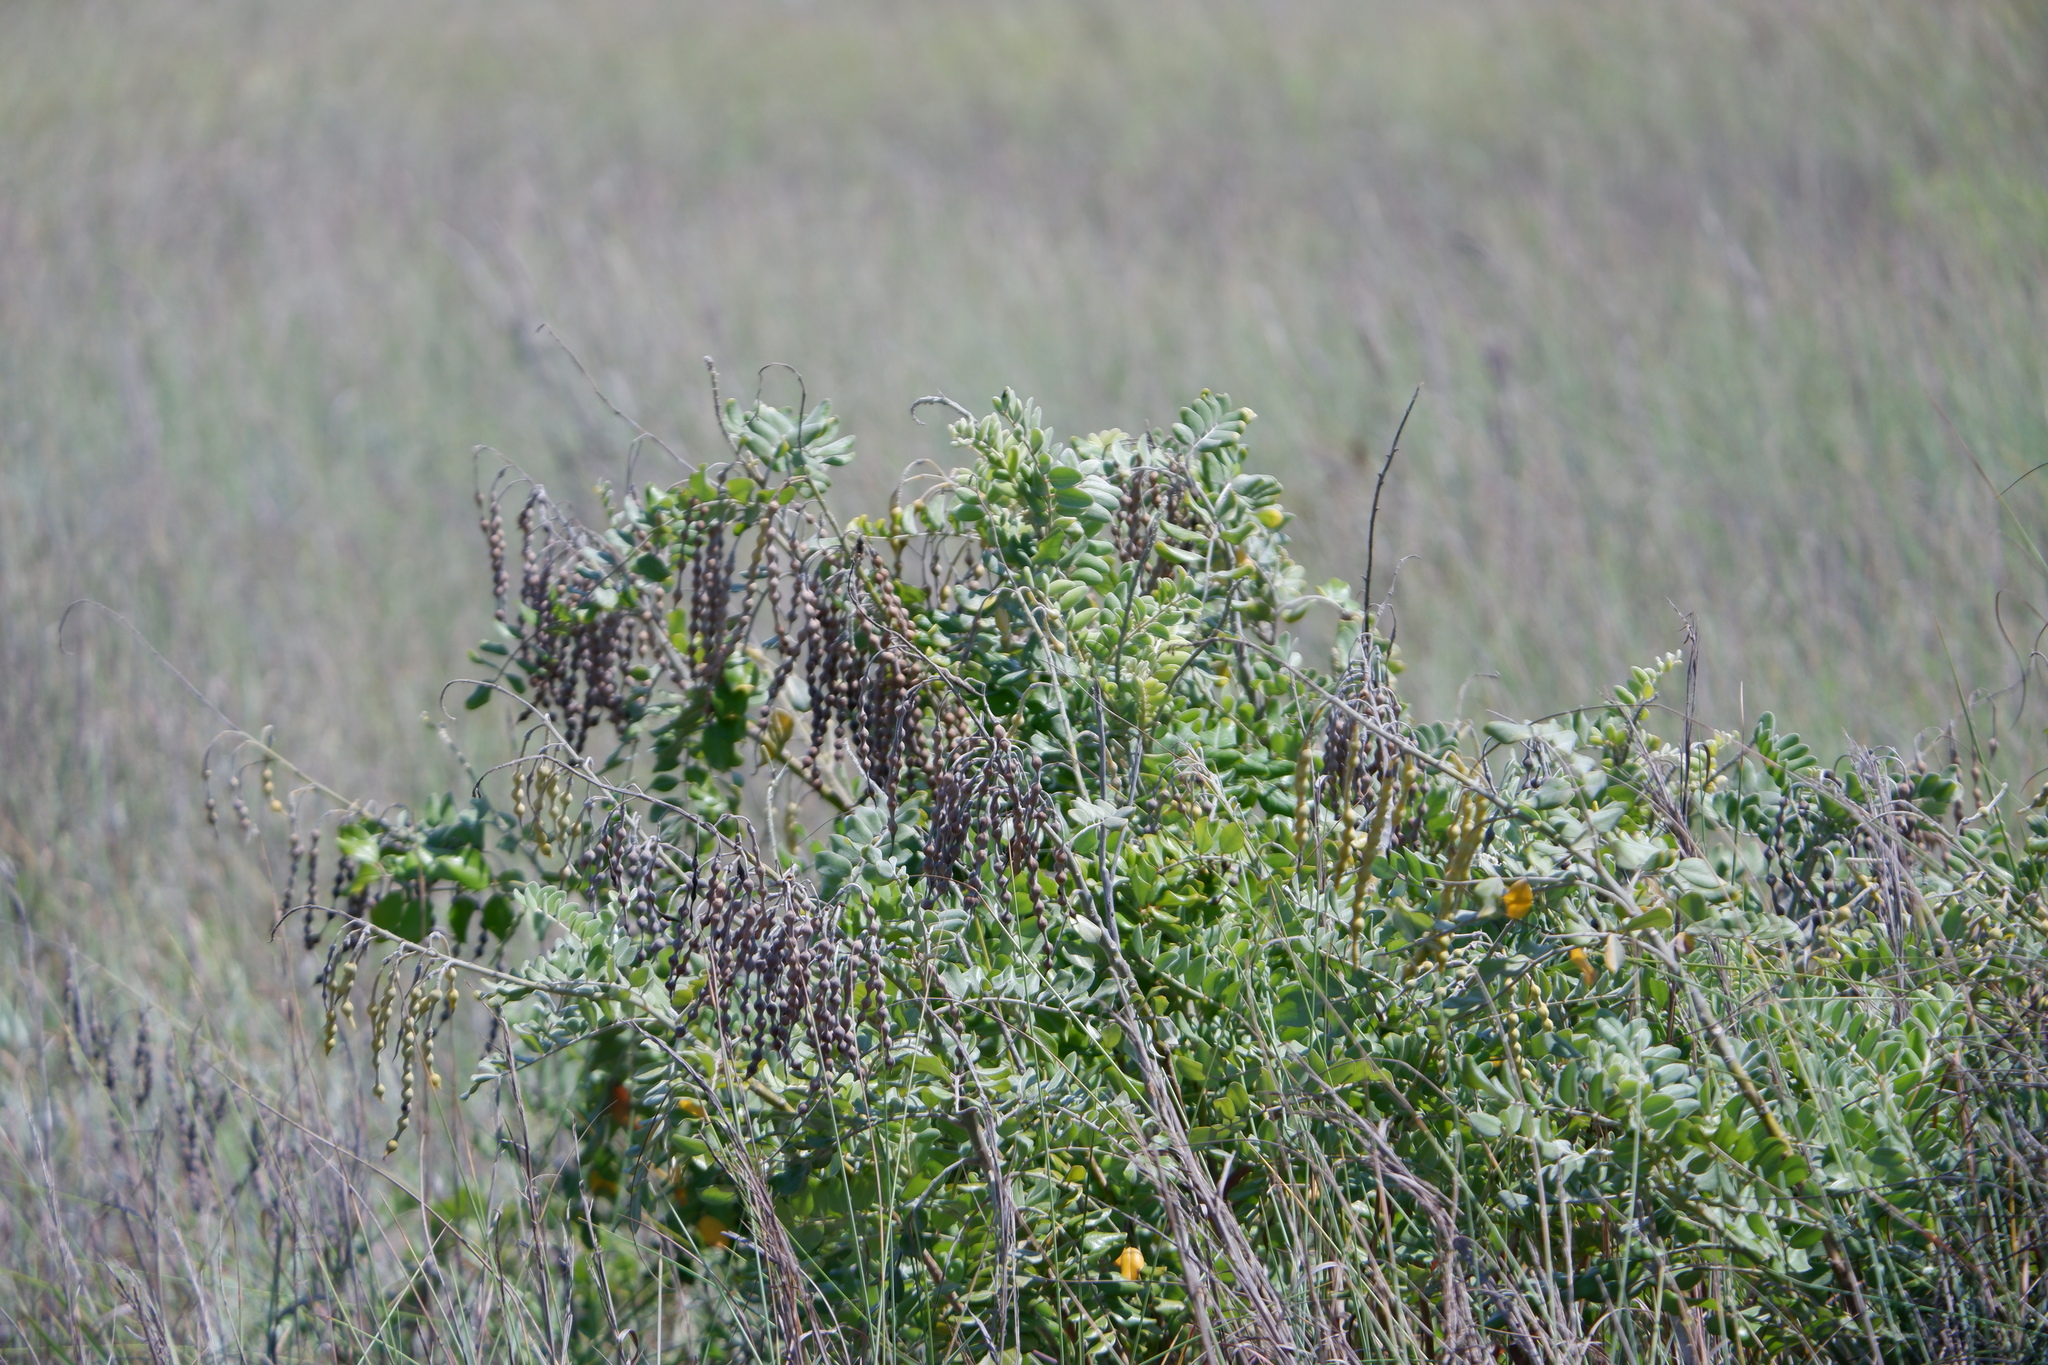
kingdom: Plantae
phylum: Tracheophyta
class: Magnoliopsida
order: Fabales
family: Fabaceae
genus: Sophora
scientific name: Sophora tomentosa
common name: Yellow necklacepod
